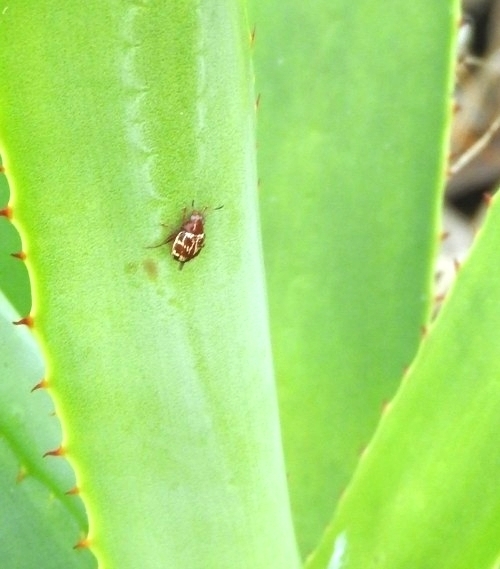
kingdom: Animalia
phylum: Arthropoda
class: Insecta
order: Coleoptera
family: Chrysomelidae
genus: Notozona
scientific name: Notozona
